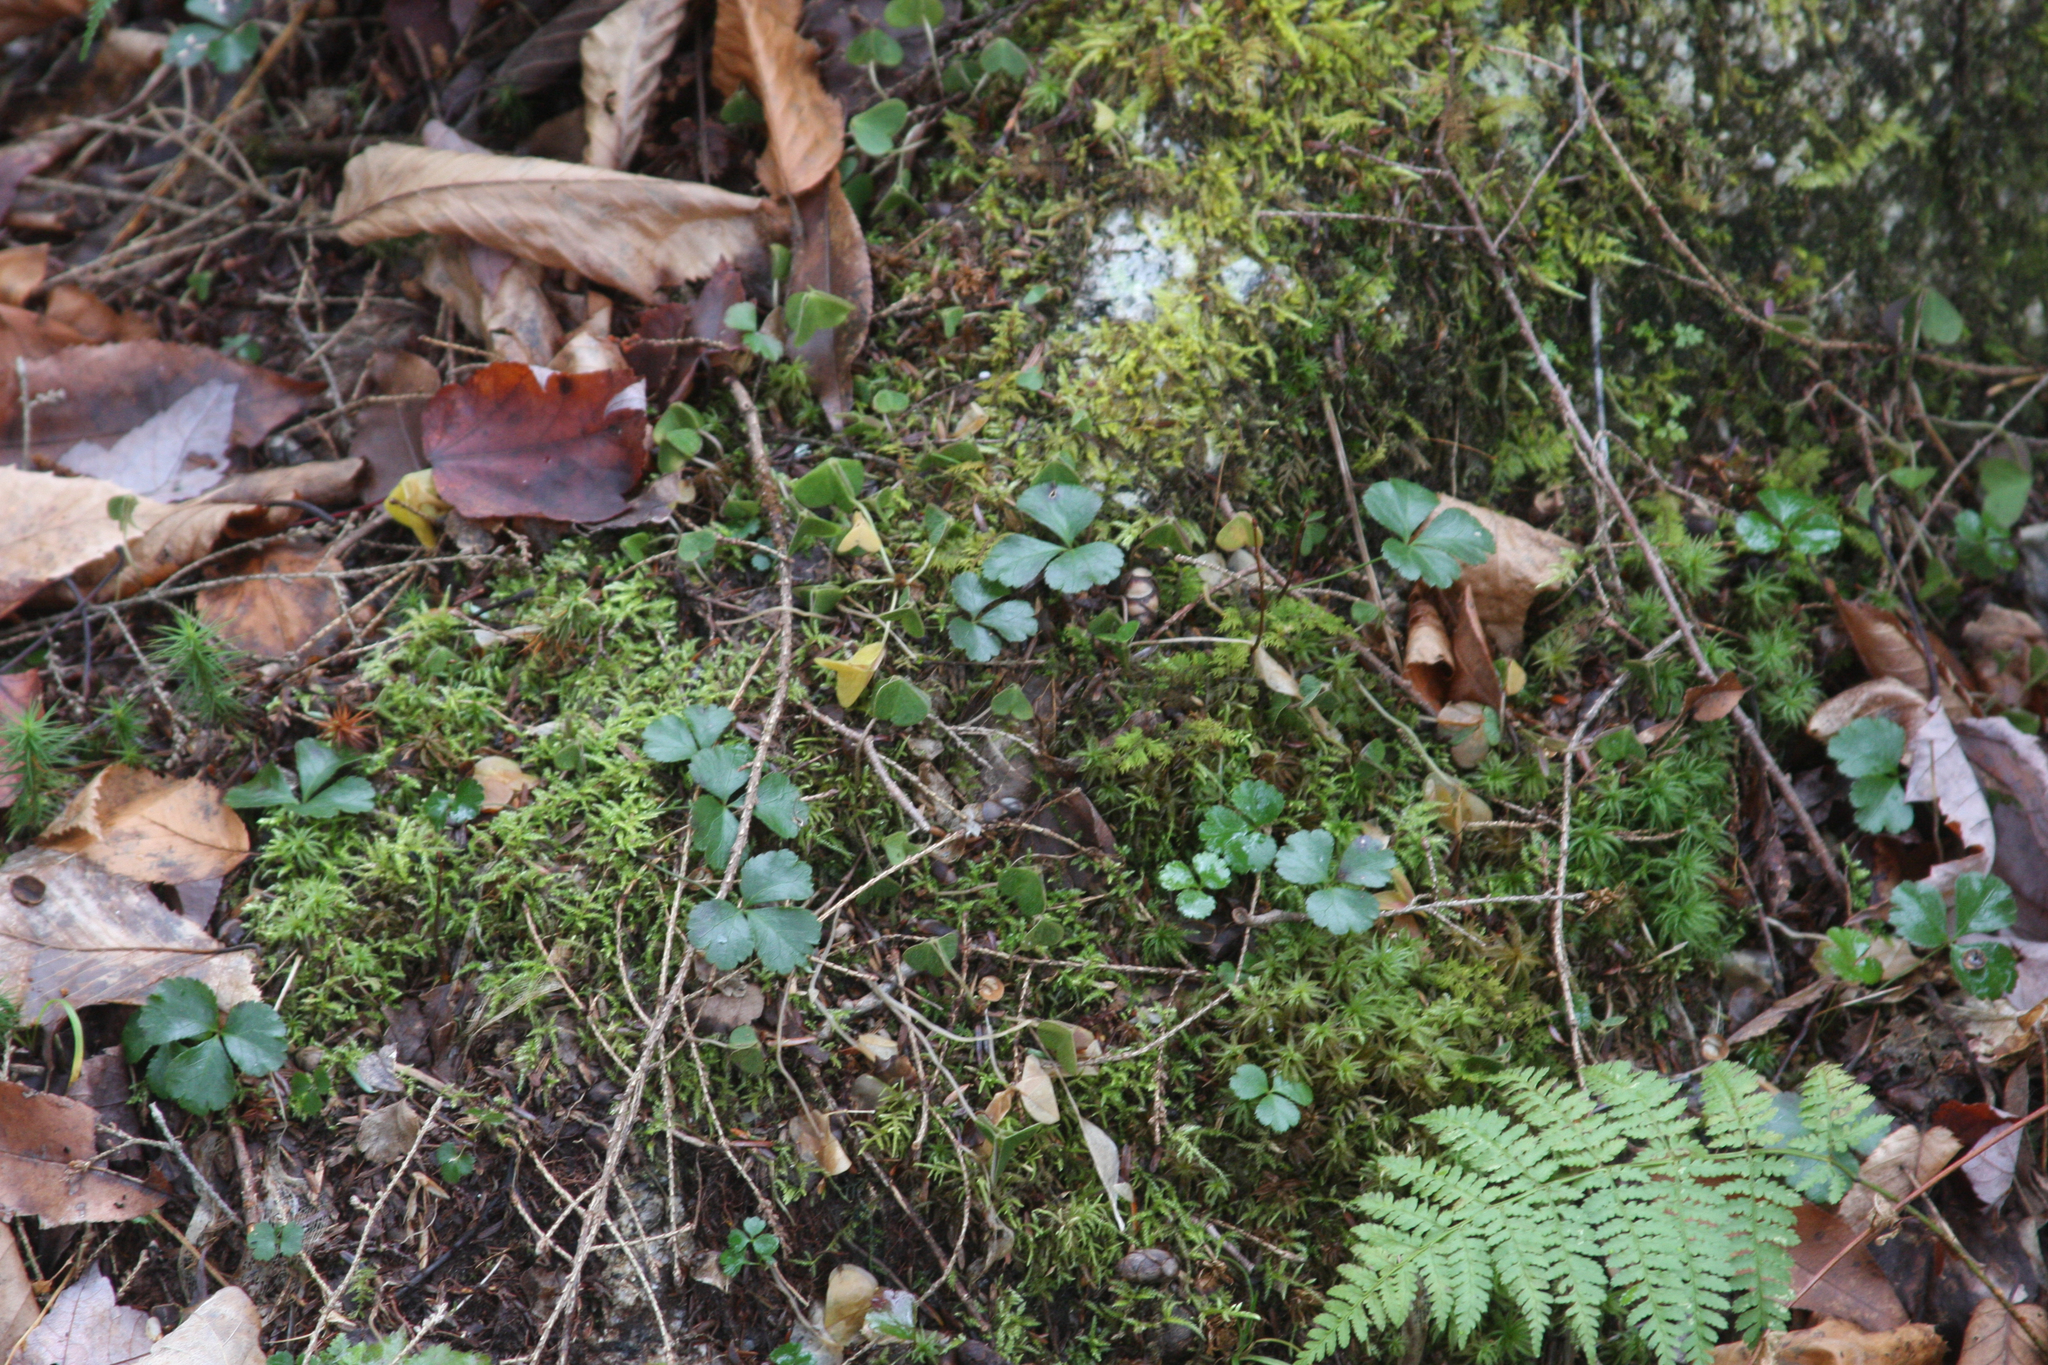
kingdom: Plantae
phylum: Tracheophyta
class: Magnoliopsida
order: Ranunculales
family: Ranunculaceae
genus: Coptis
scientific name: Coptis trifolia
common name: Canker-root
